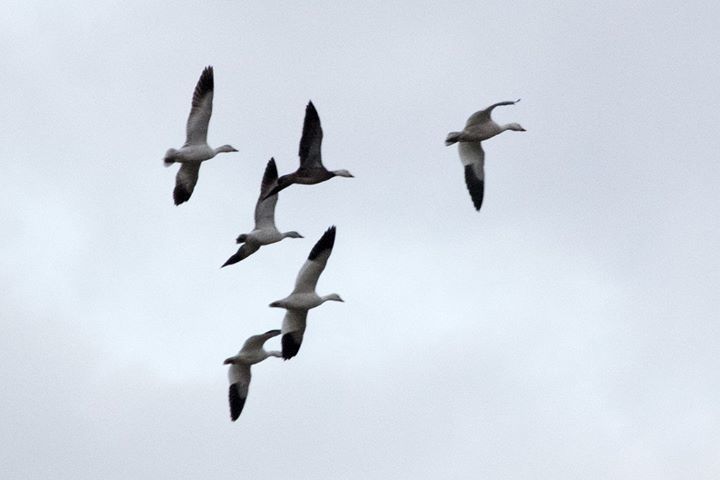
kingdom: Animalia
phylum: Chordata
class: Aves
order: Anseriformes
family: Anatidae
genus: Anser
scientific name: Anser caerulescens
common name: Snow goose
